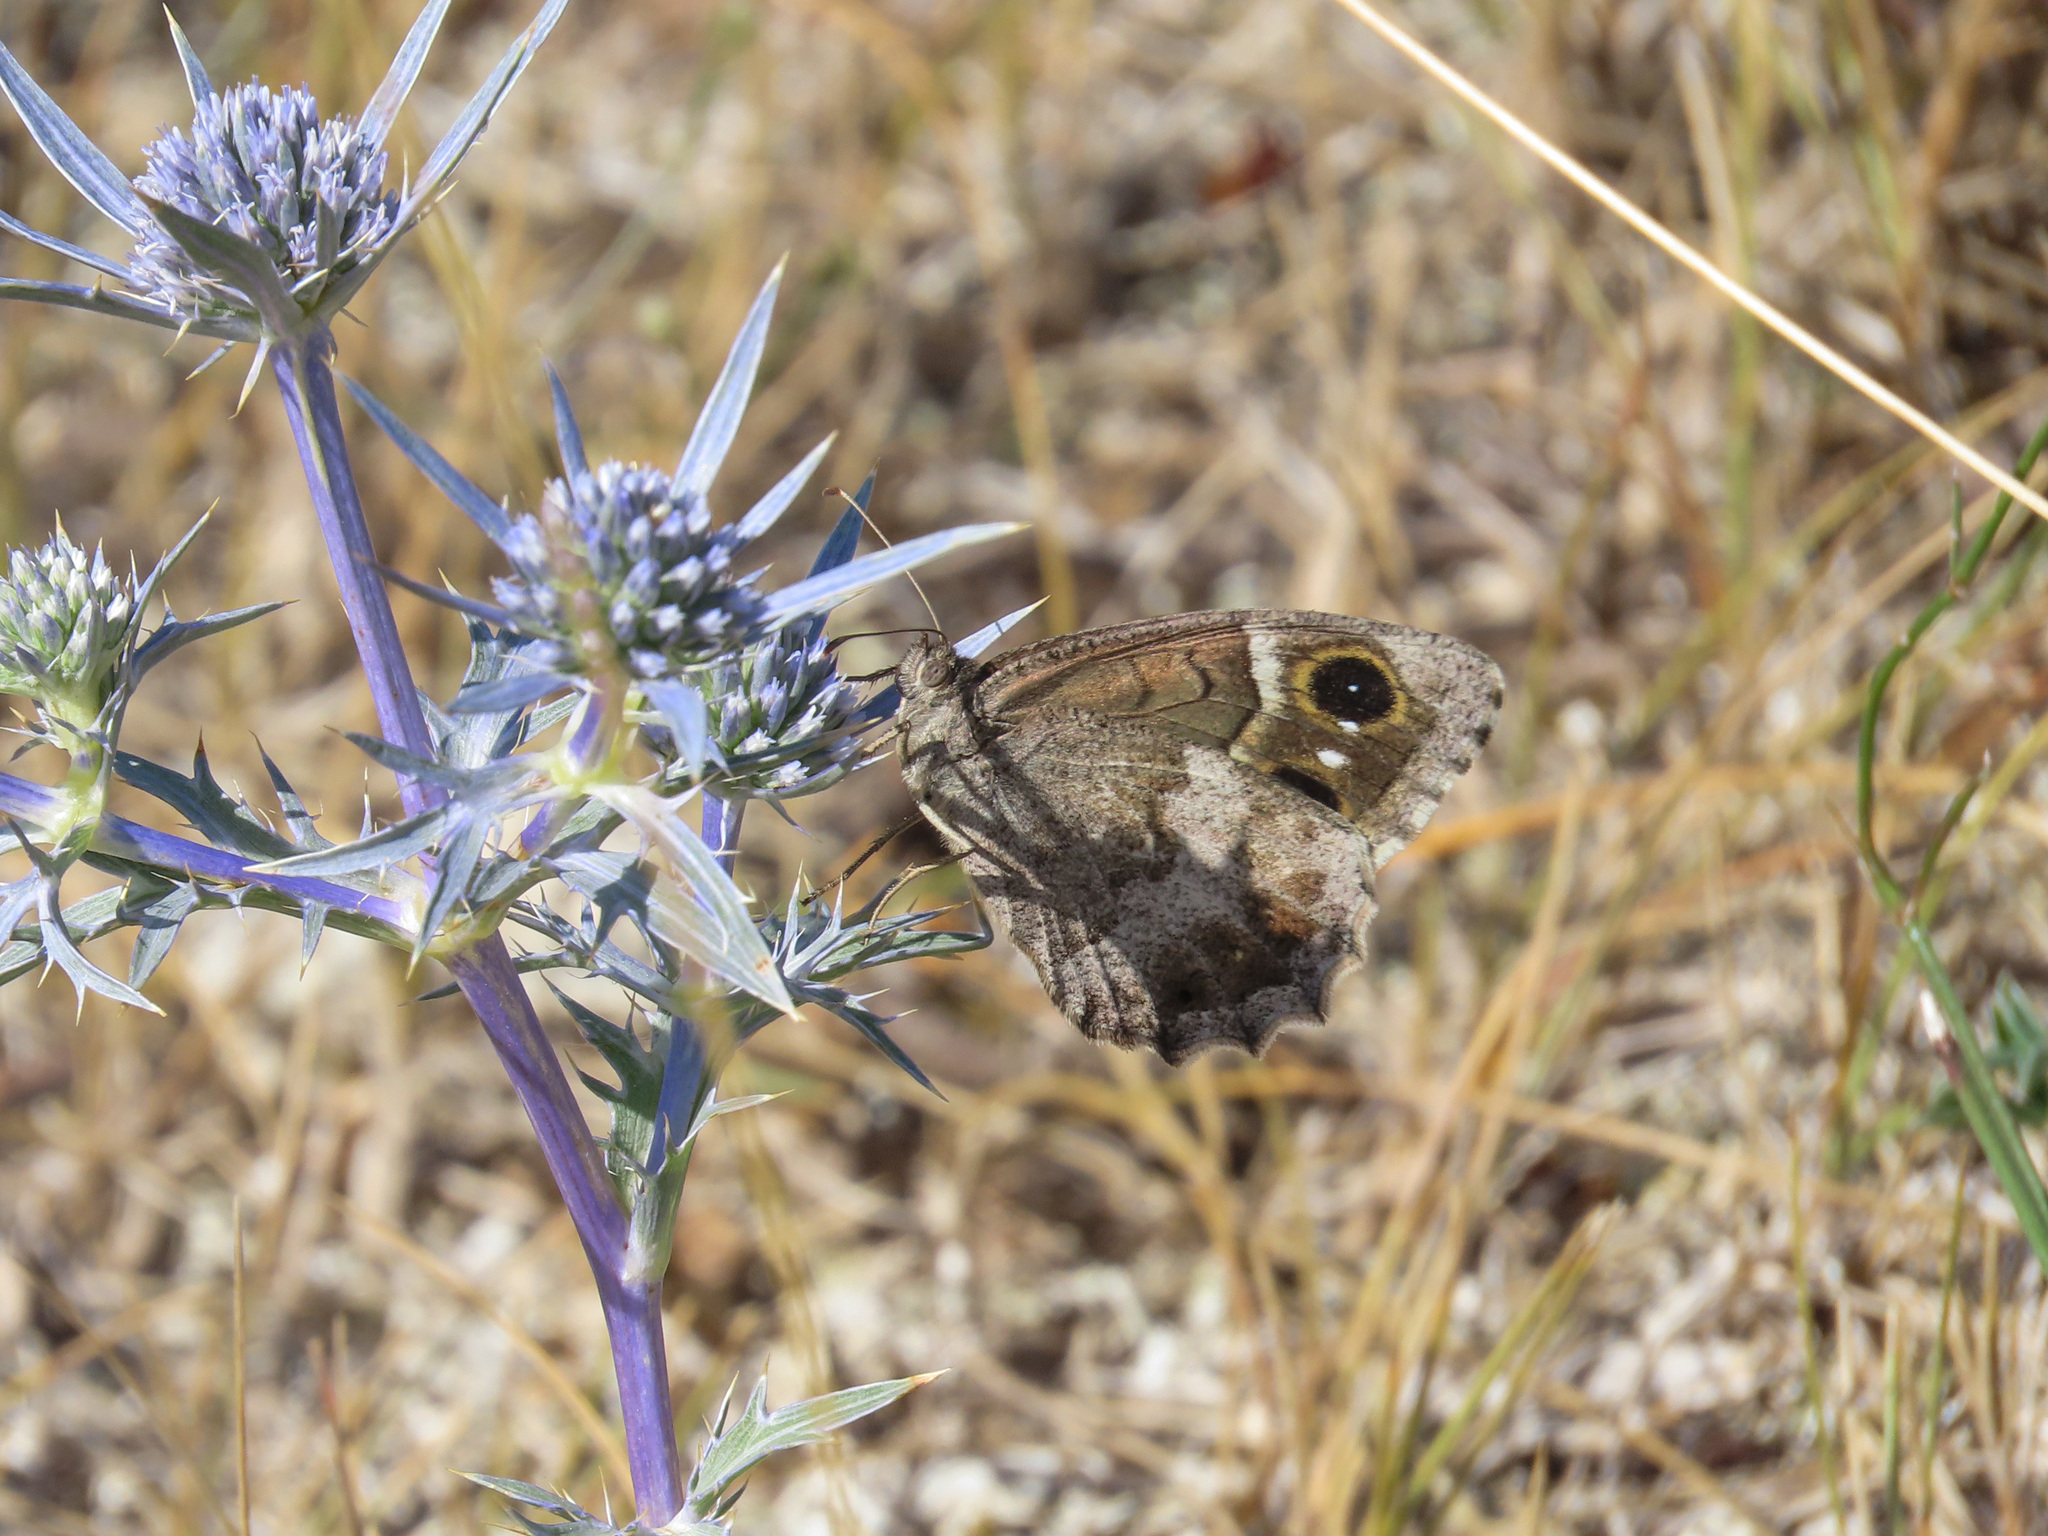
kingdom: Animalia
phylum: Arthropoda
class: Insecta
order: Lepidoptera
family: Nymphalidae
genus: Hipparchia
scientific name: Hipparchia statilinus
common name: Tree grayling
